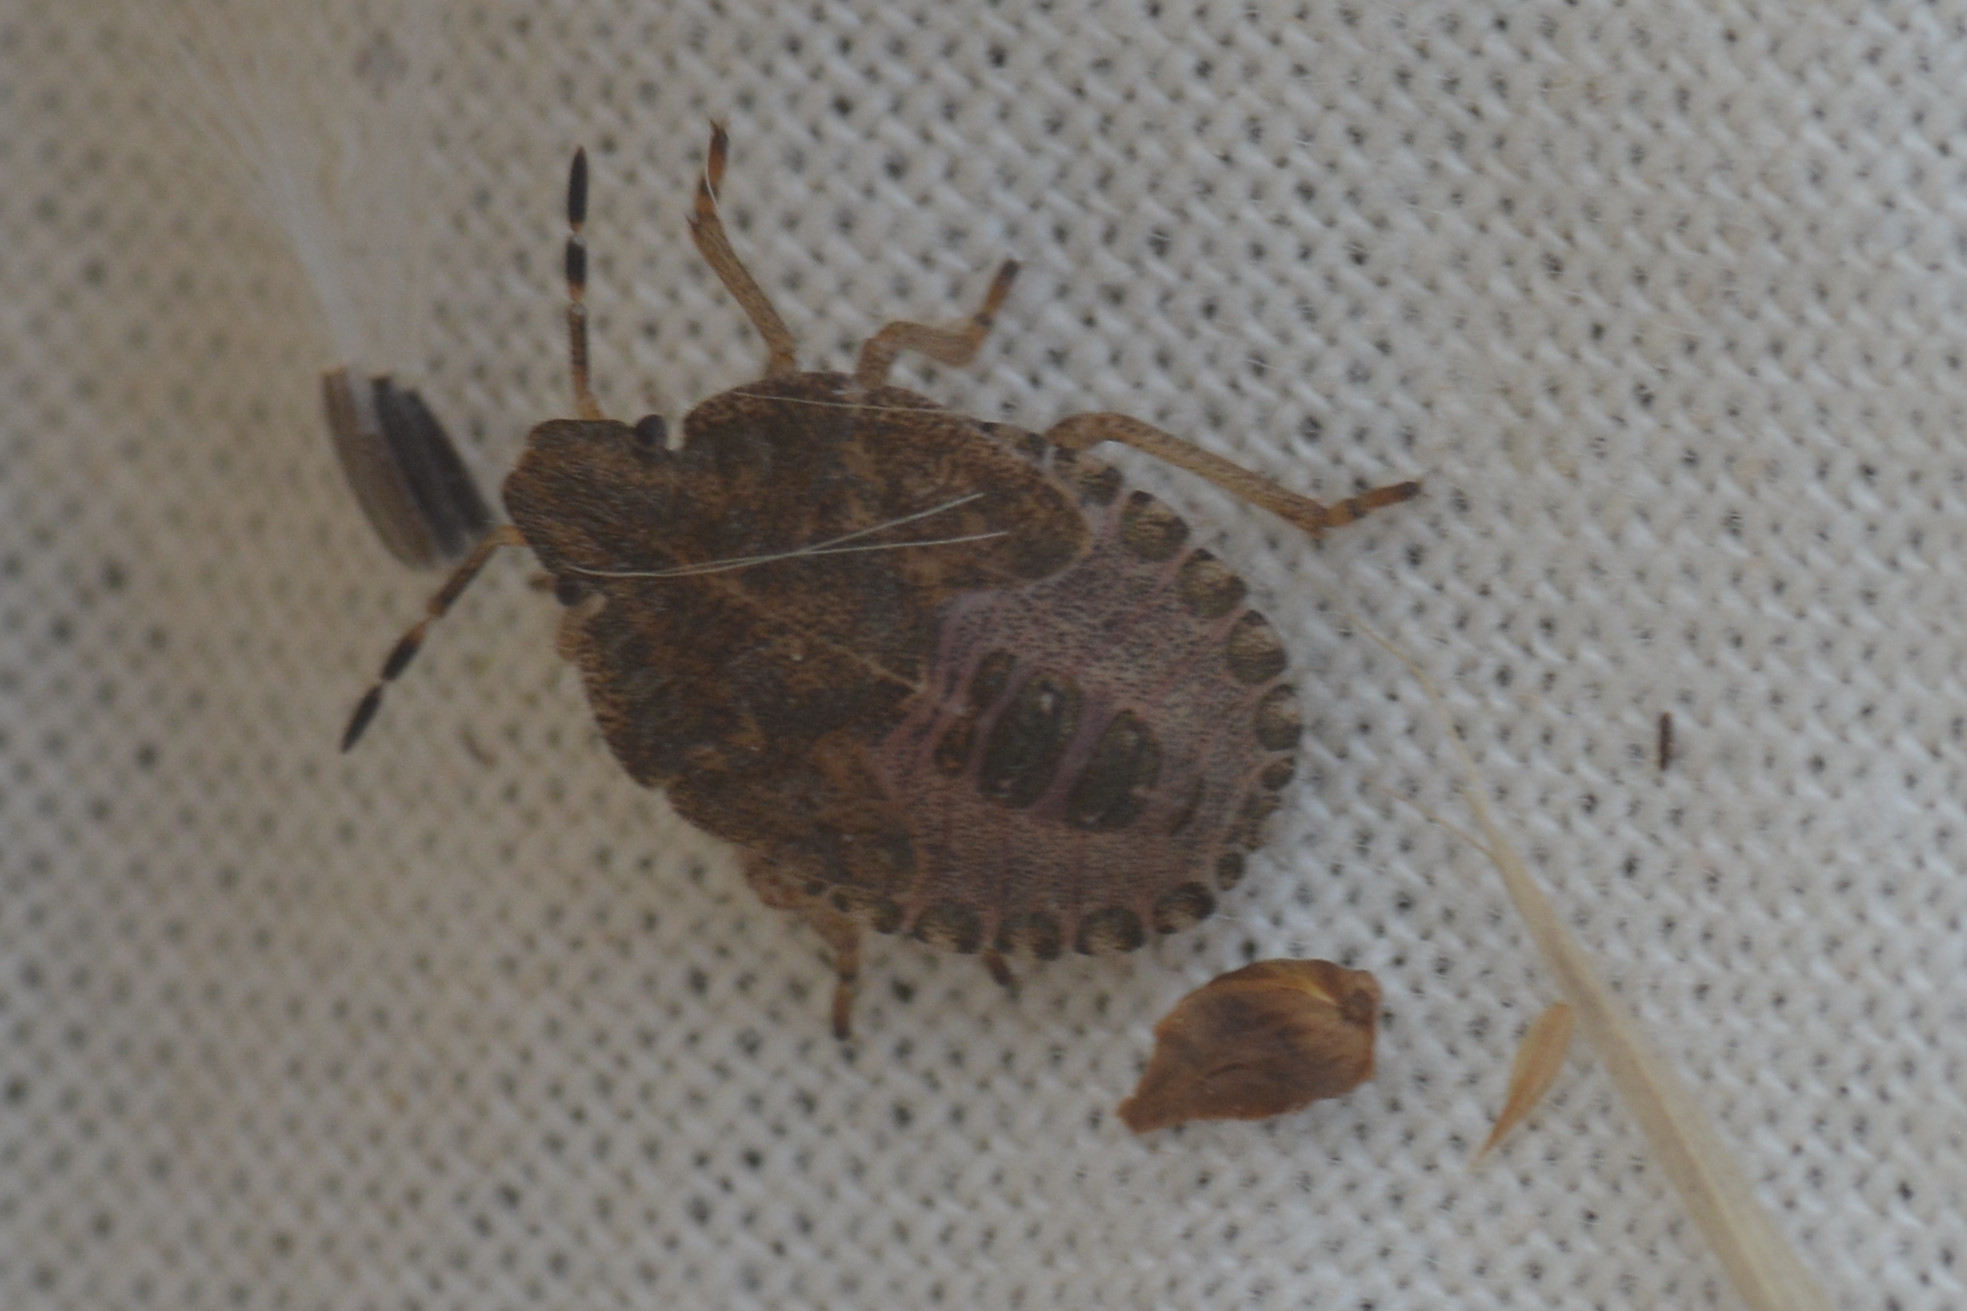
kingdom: Animalia
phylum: Arthropoda
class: Insecta
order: Hemiptera
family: Pentatomidae
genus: Dolycoris
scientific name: Dolycoris baccarum
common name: Sloe bug
